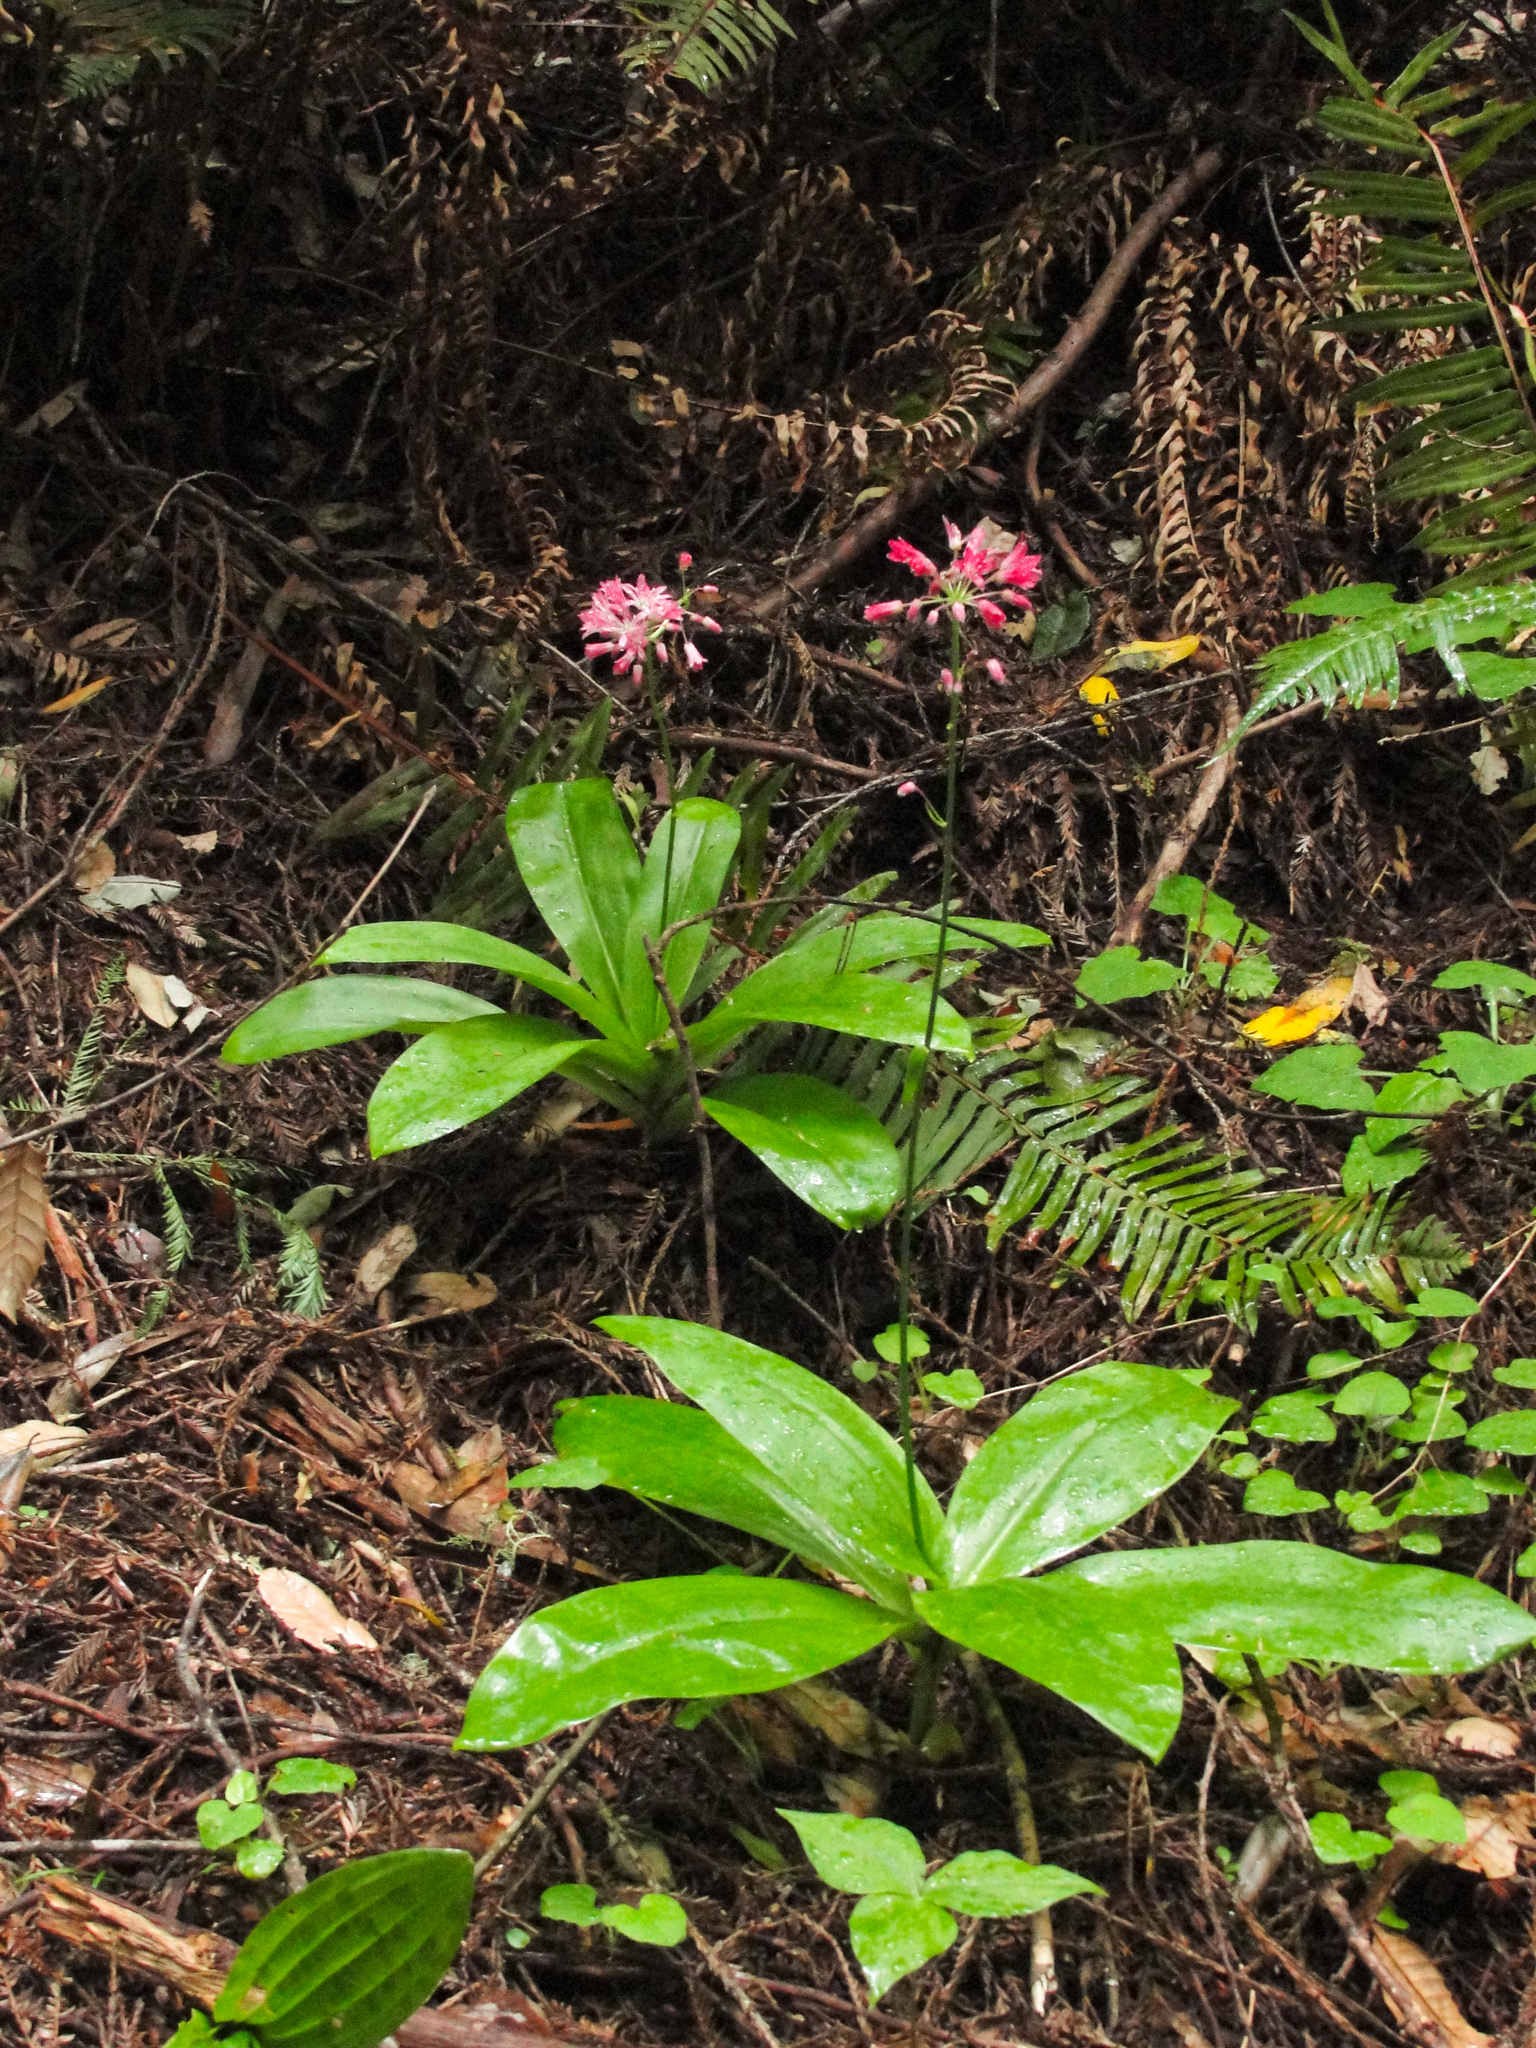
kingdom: Plantae
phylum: Tracheophyta
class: Liliopsida
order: Liliales
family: Liliaceae
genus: Clintonia
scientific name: Clintonia andrewsiana
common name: Red clintonia
